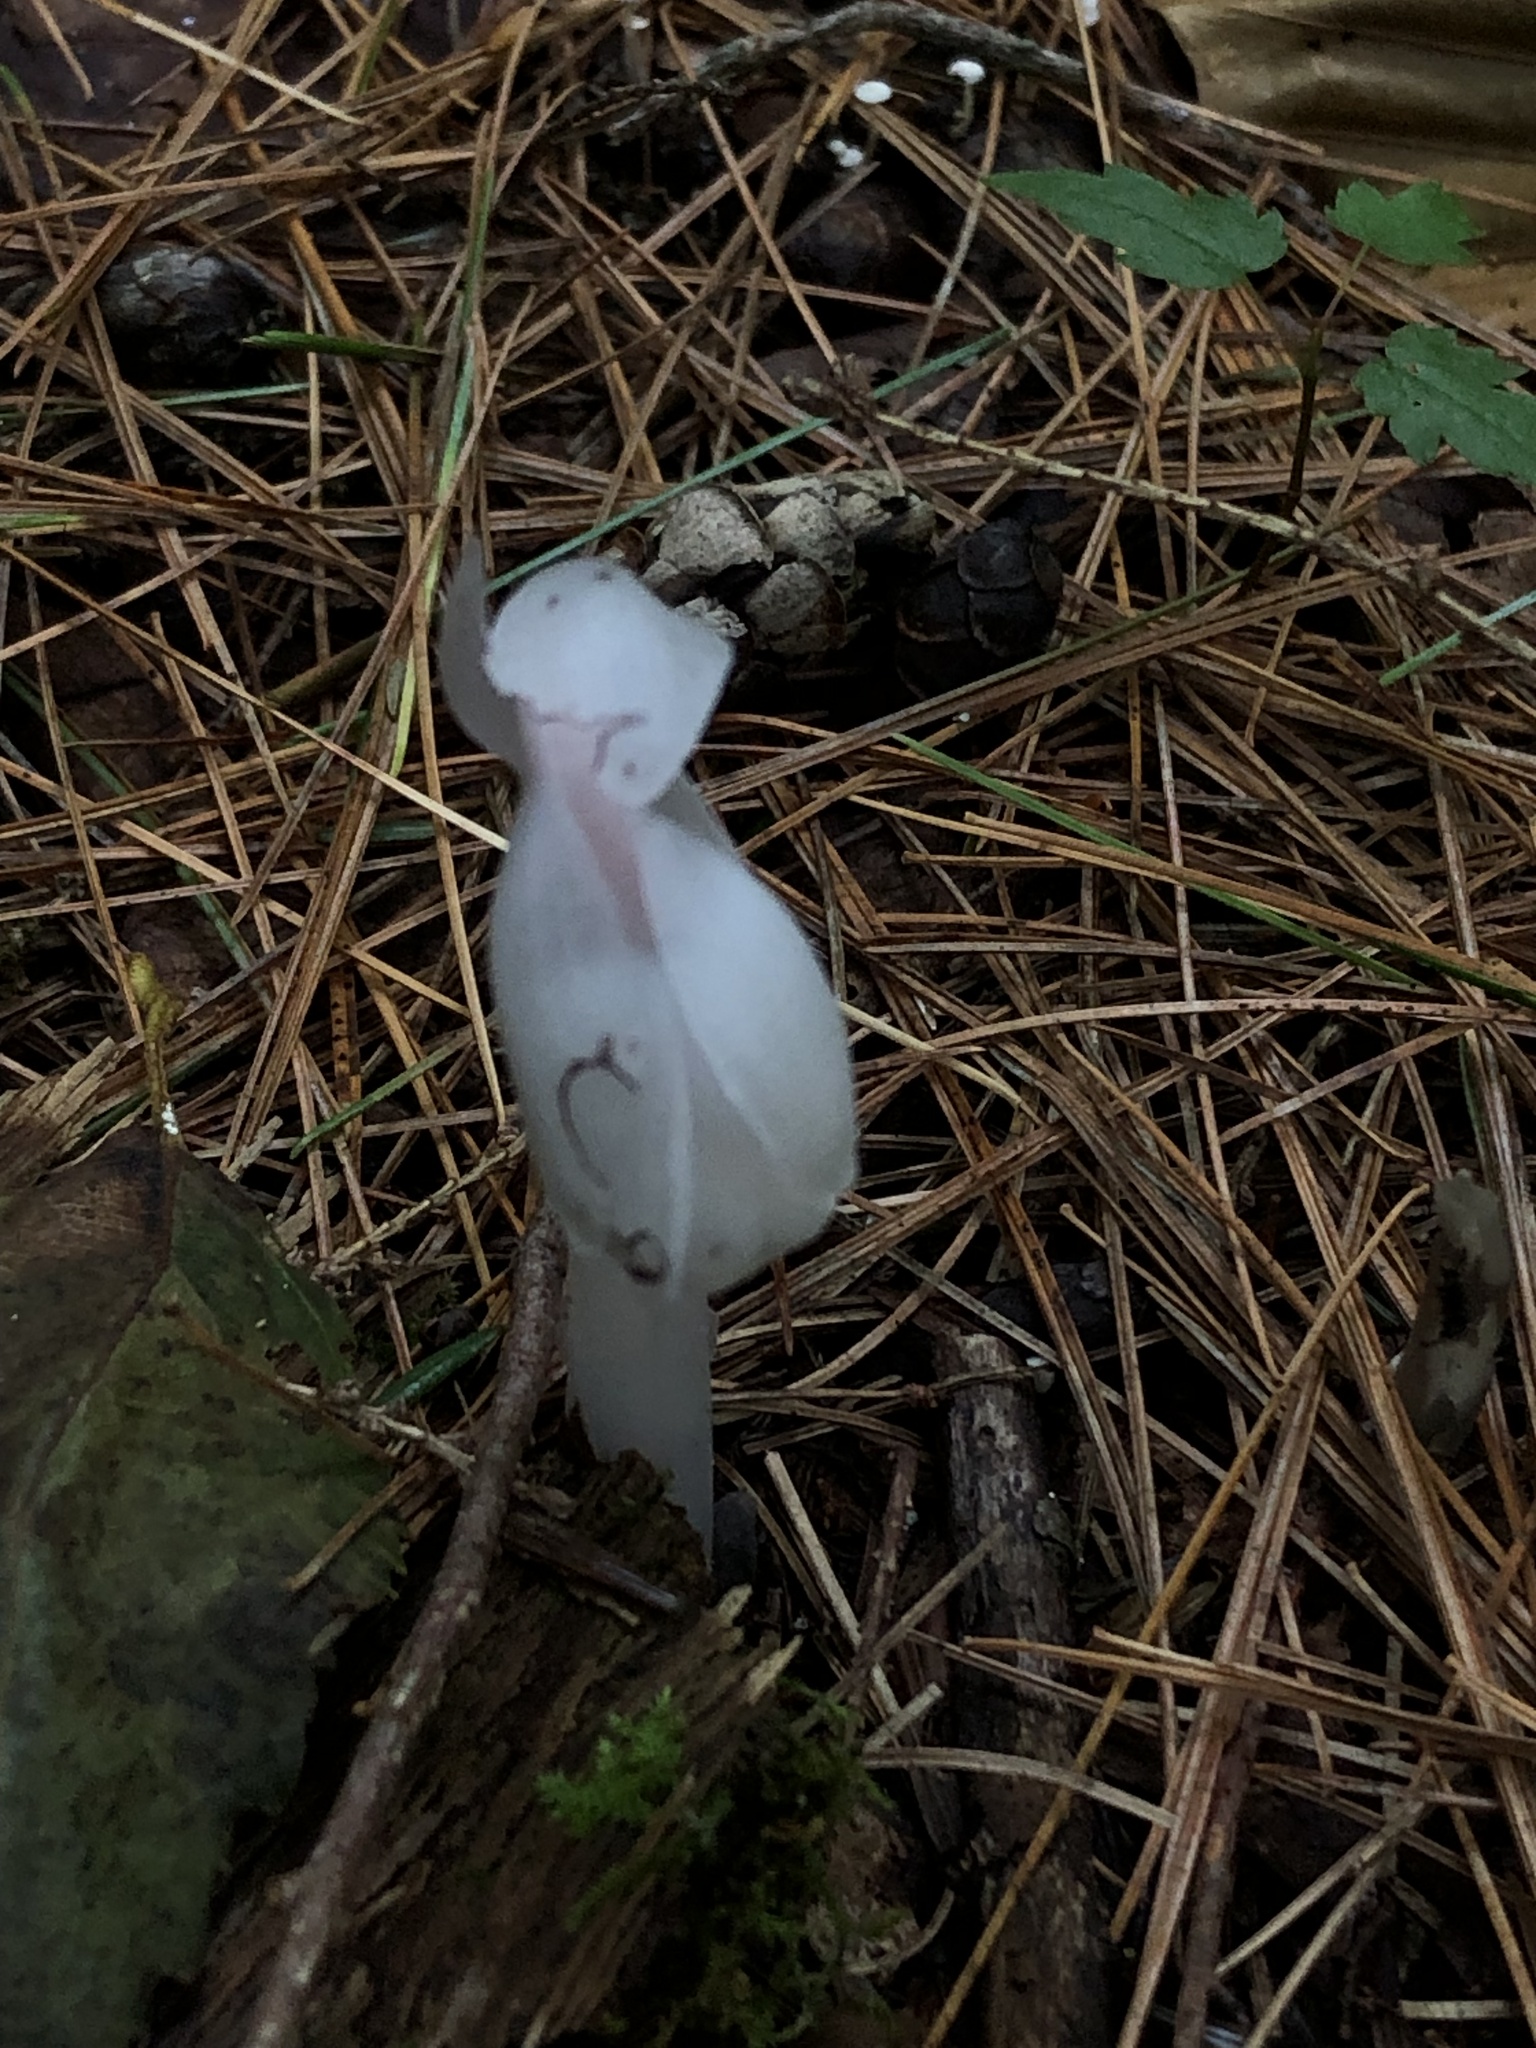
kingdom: Plantae
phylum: Tracheophyta
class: Magnoliopsida
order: Ericales
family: Ericaceae
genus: Monotropa
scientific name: Monotropa uniflora
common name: Convulsion root
